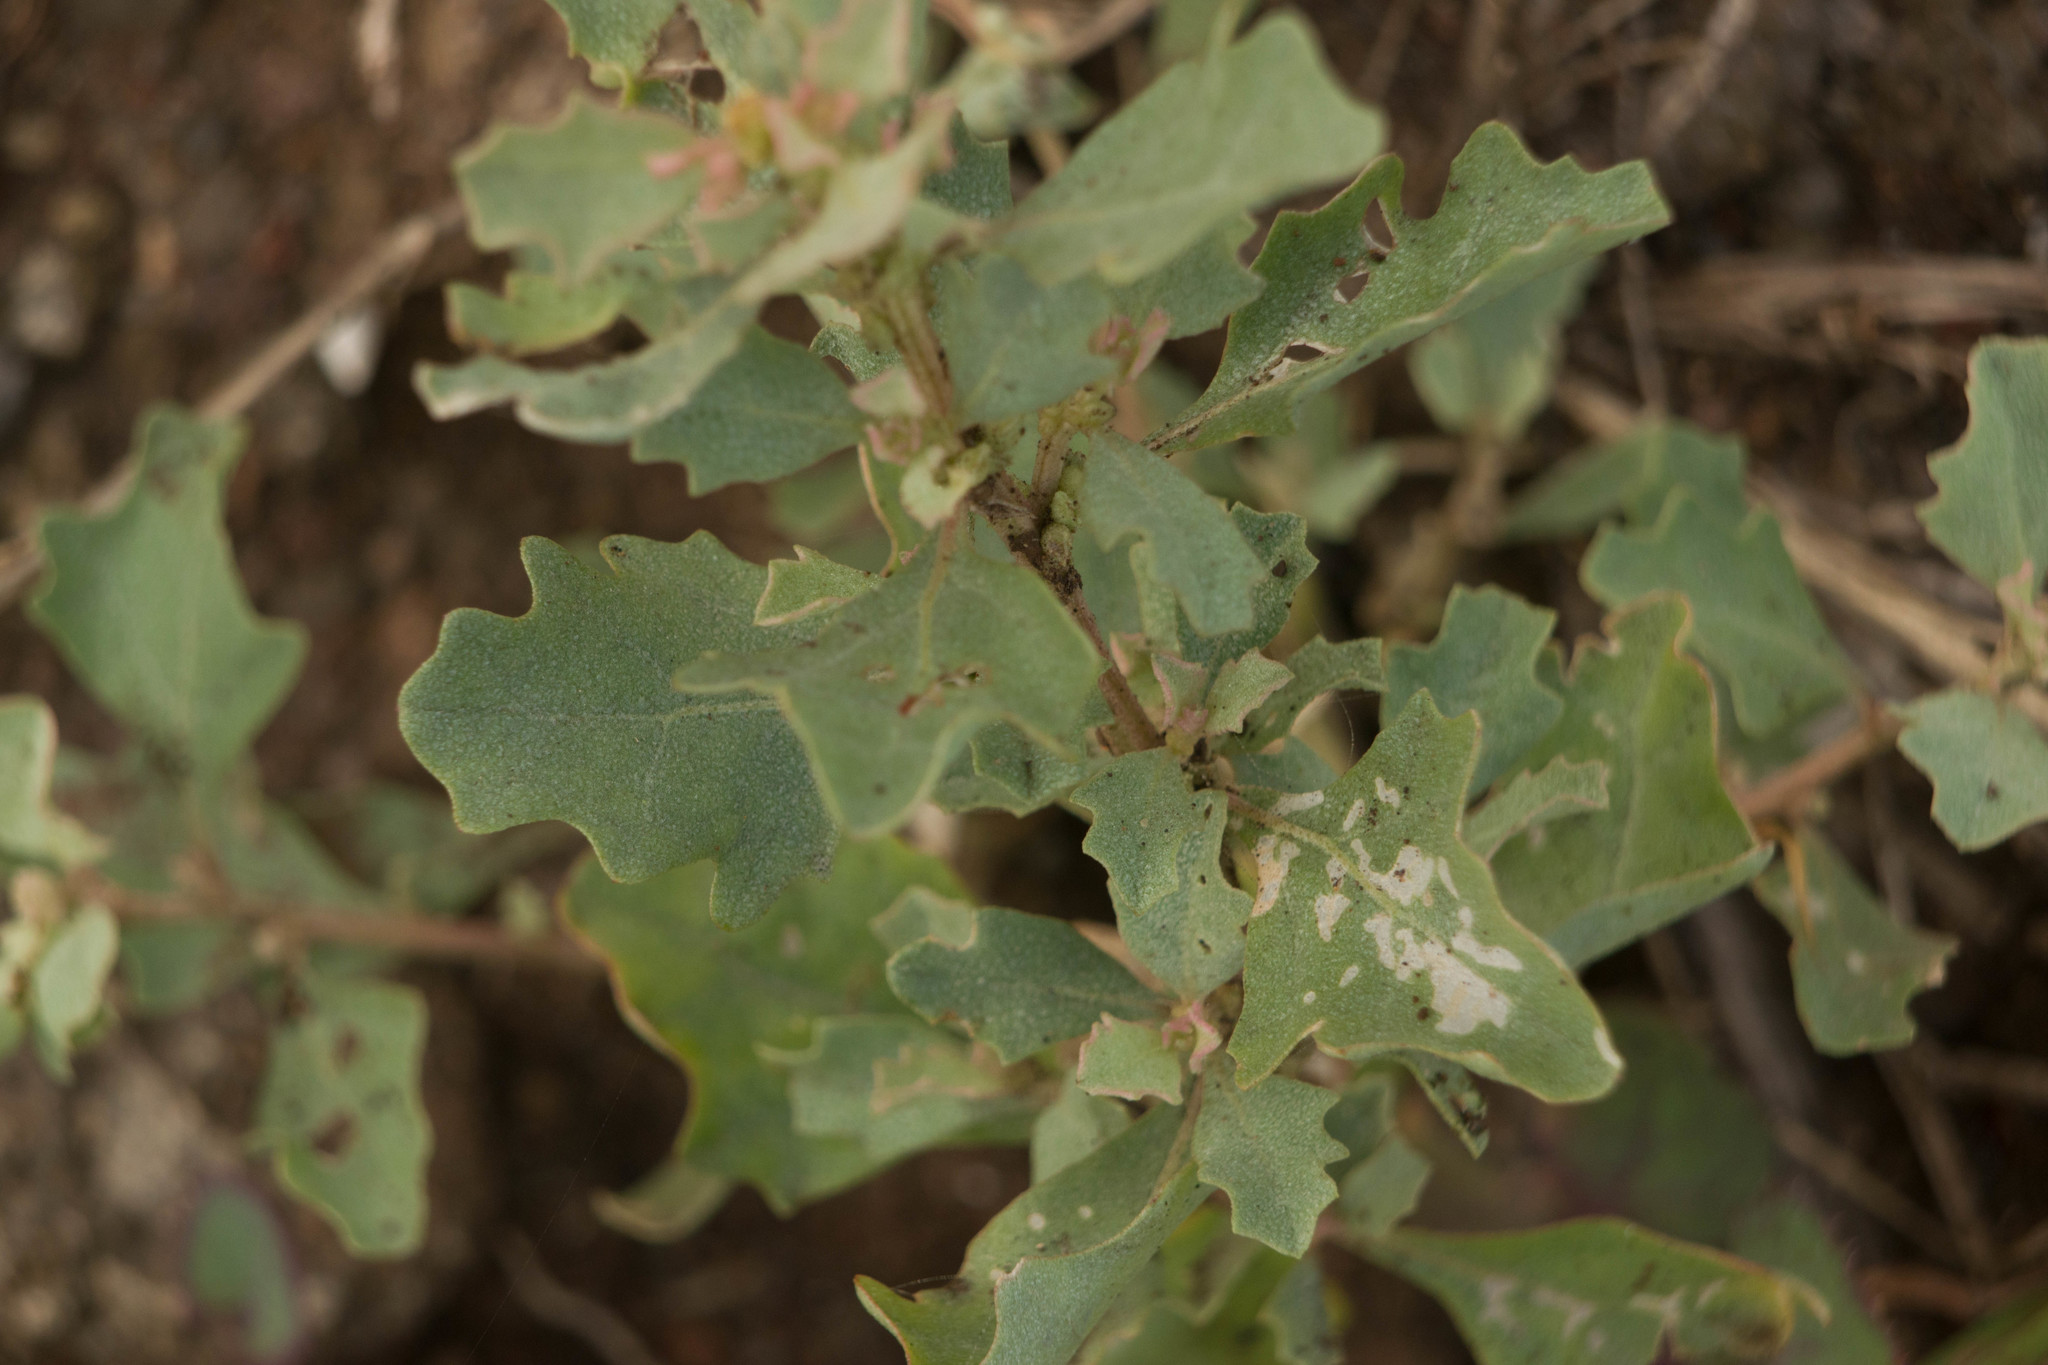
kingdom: Plantae
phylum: Tracheophyta
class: Magnoliopsida
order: Caryophyllales
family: Amaranthaceae
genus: Atriplex
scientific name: Atriplex muelleri
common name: Mueller's saltbush
